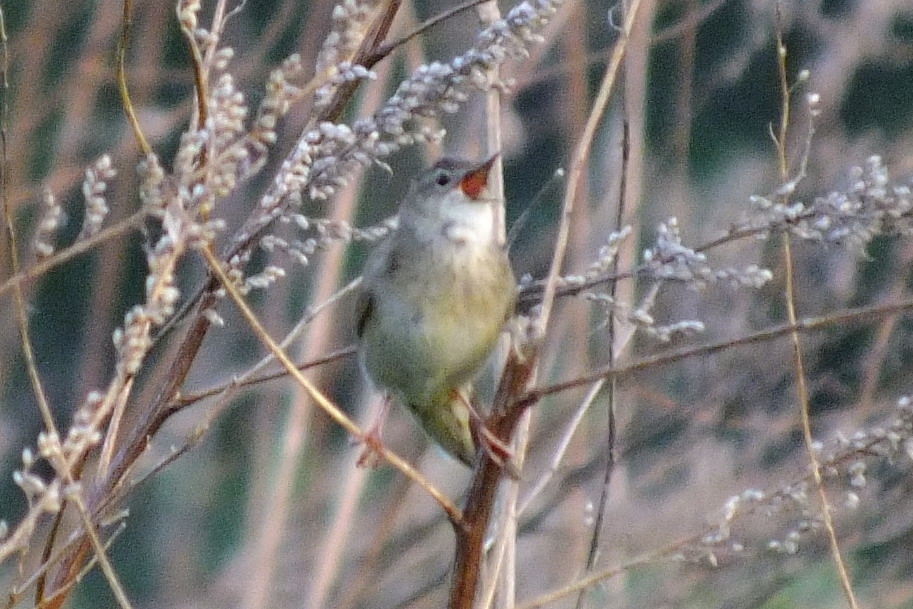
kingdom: Animalia
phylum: Chordata
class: Aves
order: Passeriformes
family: Locustellidae
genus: Locustella
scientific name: Locustella naevia
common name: Common grasshopper warbler
